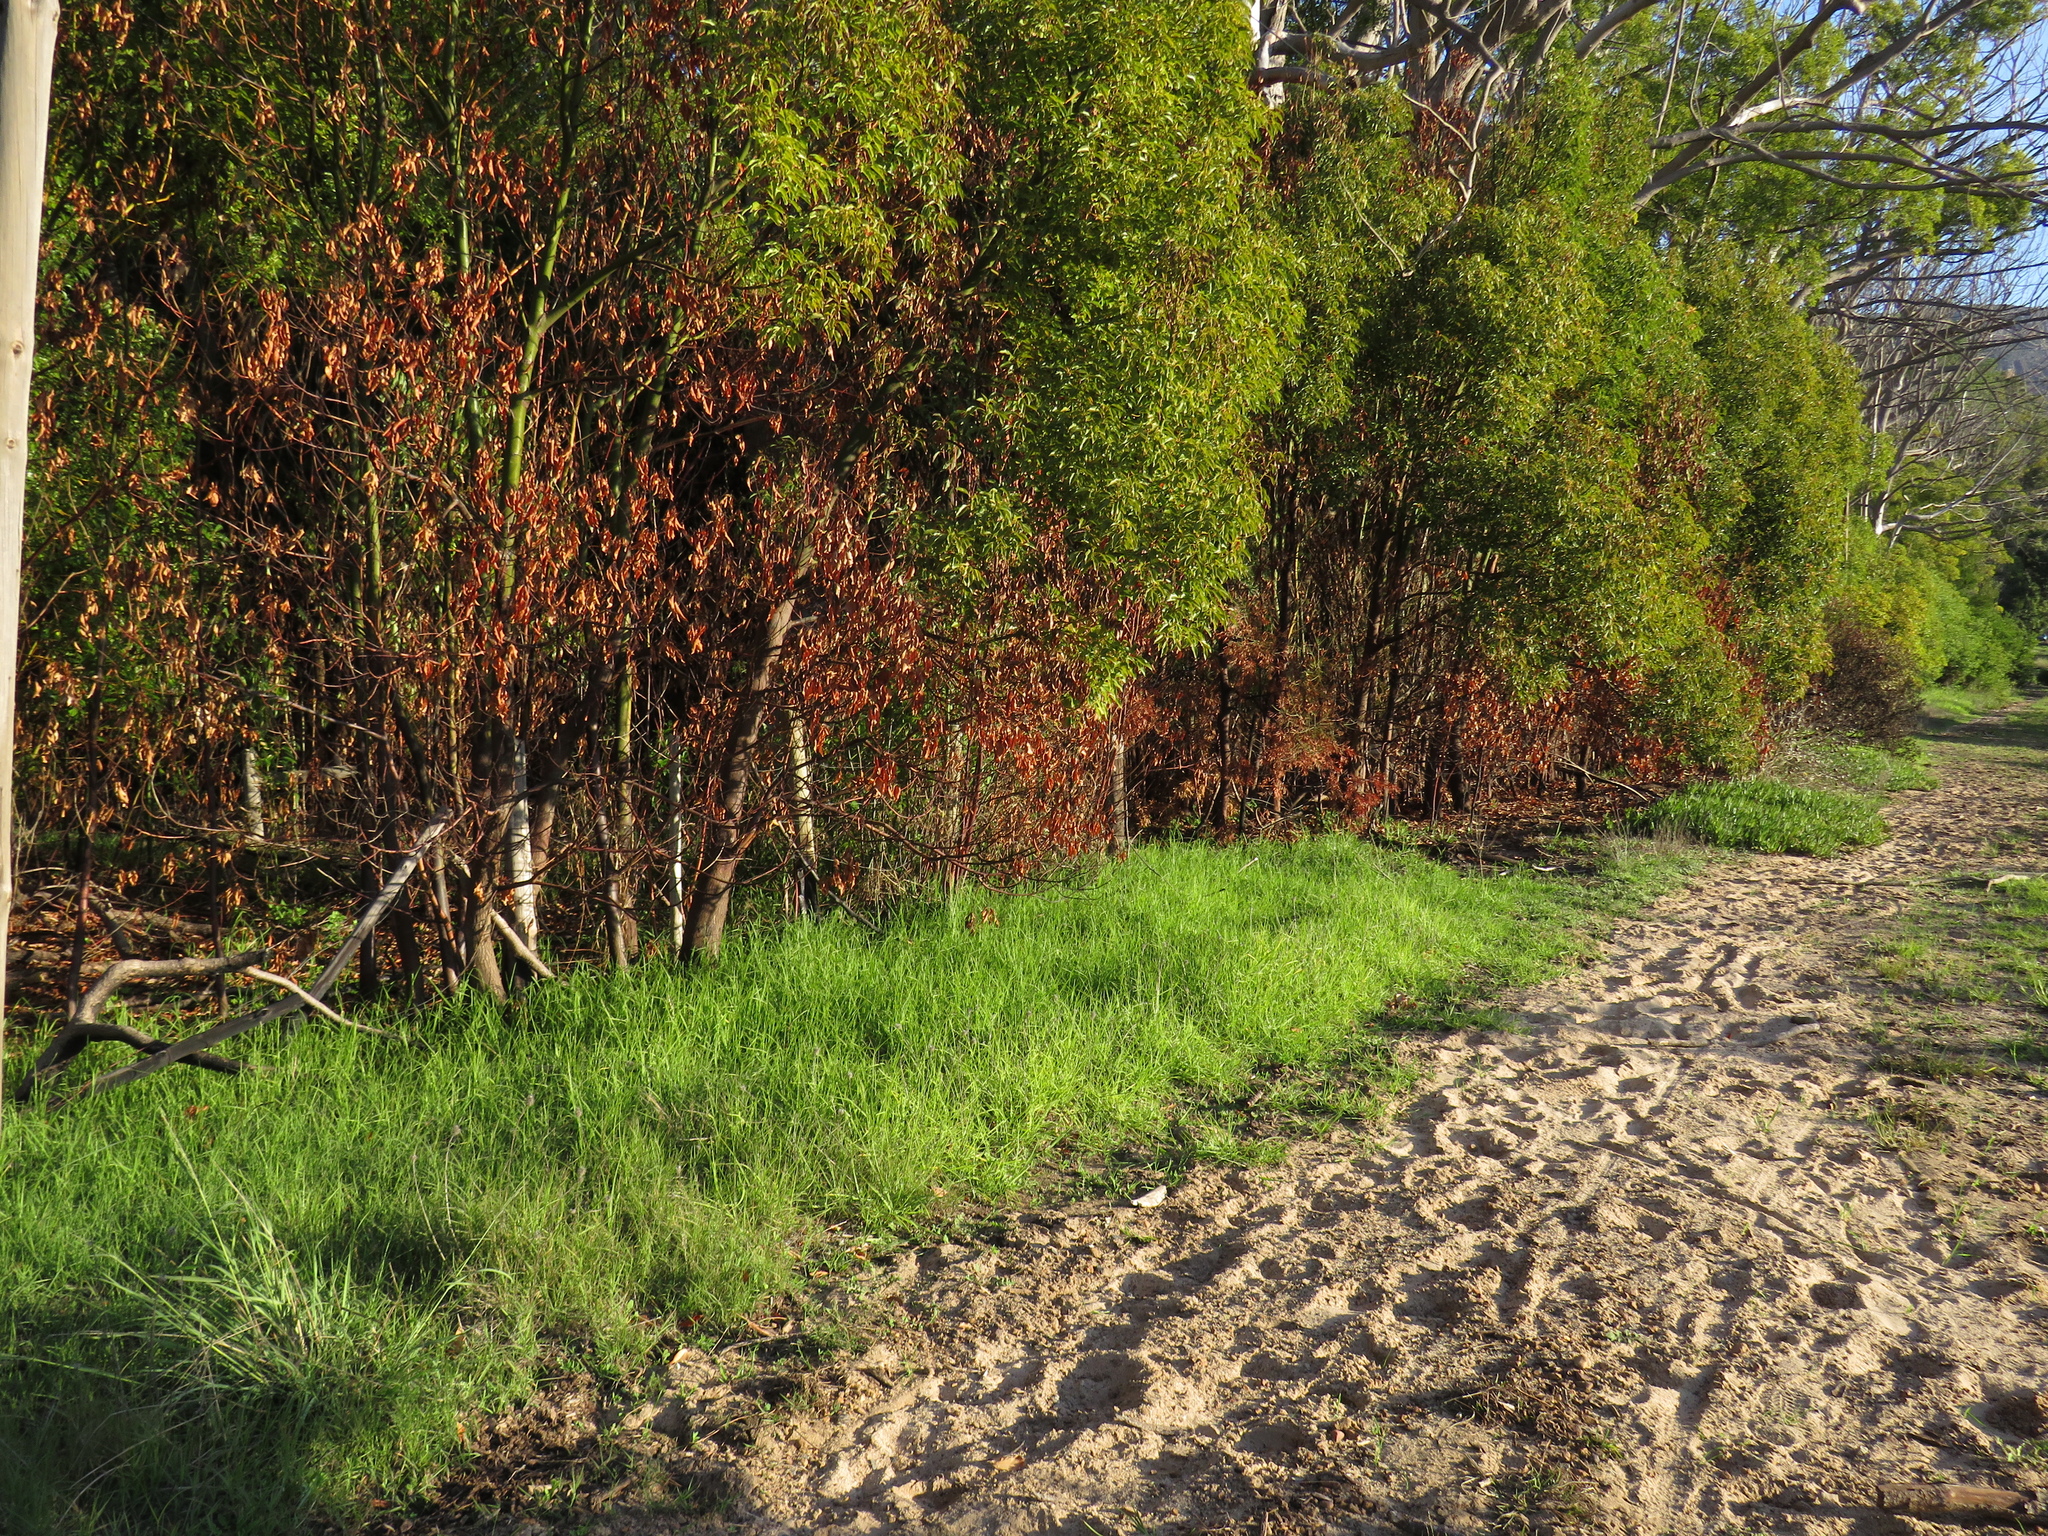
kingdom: Plantae
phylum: Tracheophyta
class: Liliopsida
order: Poales
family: Poaceae
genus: Cenchrus
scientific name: Cenchrus clandestinus
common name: Kikuyugrass
